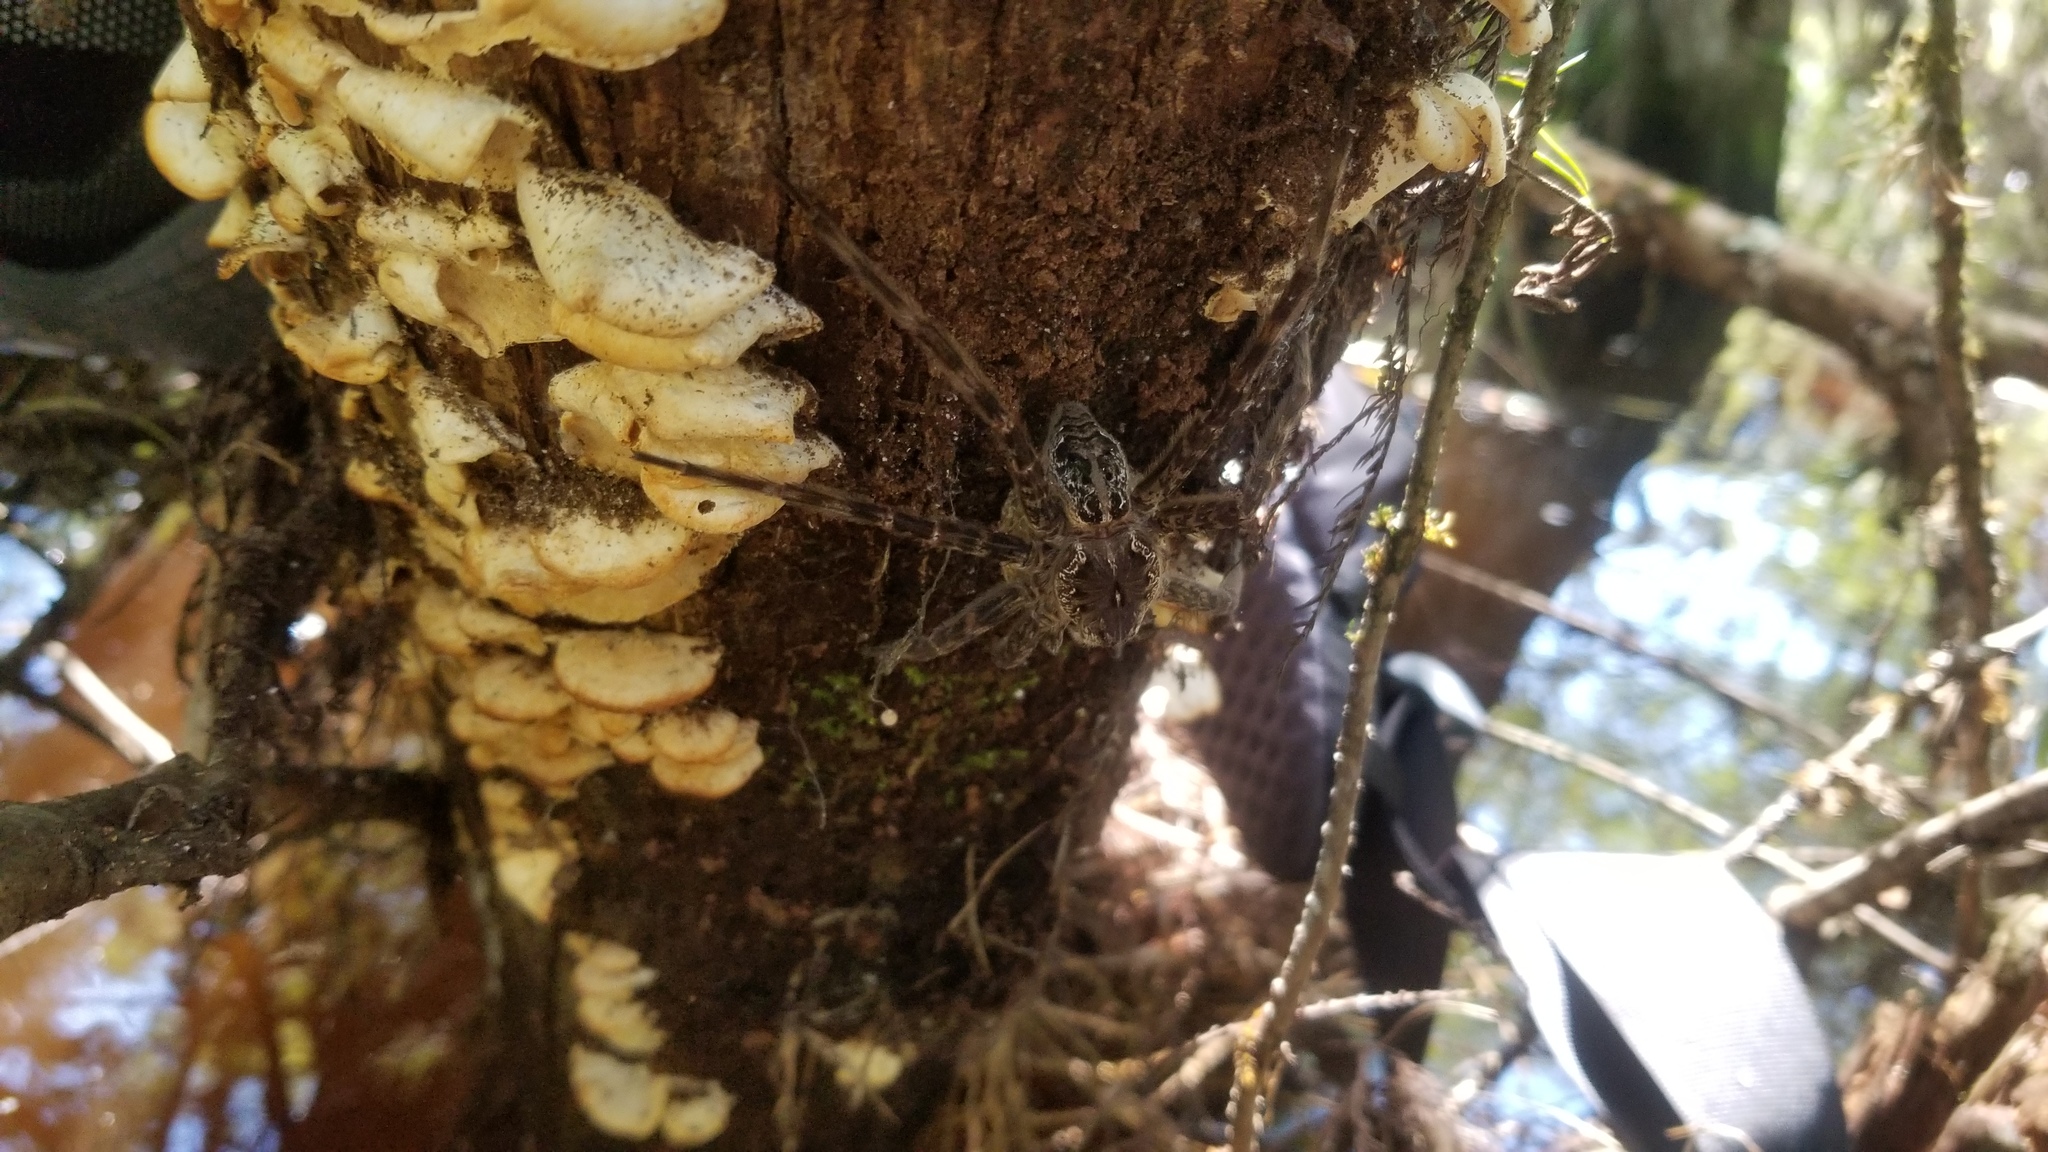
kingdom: Animalia
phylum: Arthropoda
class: Arachnida
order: Araneae
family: Pisauridae
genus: Dolomedes
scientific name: Dolomedes okefinokensis
